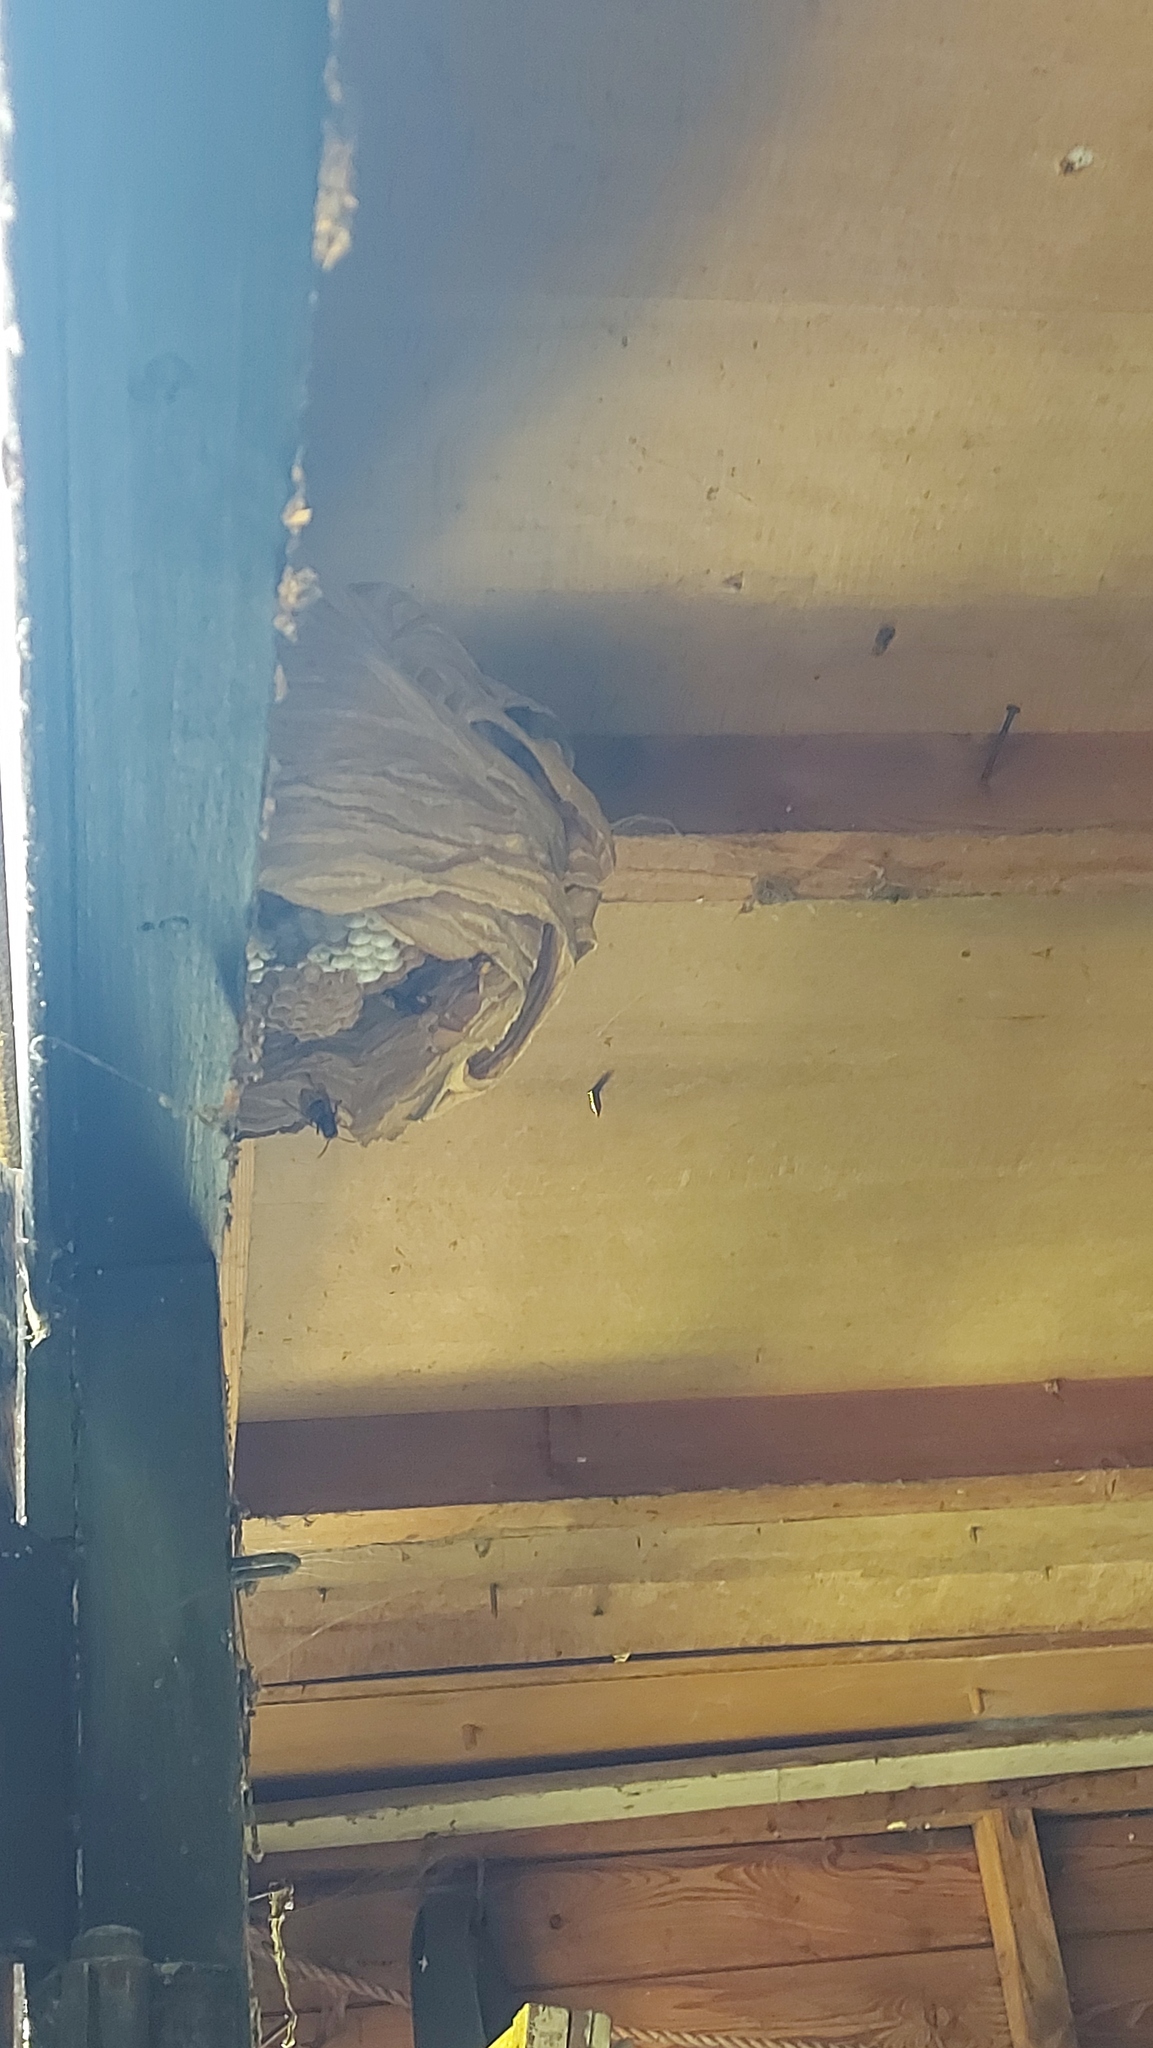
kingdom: Animalia
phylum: Arthropoda
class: Insecta
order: Hymenoptera
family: Vespidae
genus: Vespa
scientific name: Vespa crabro
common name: Hornet
